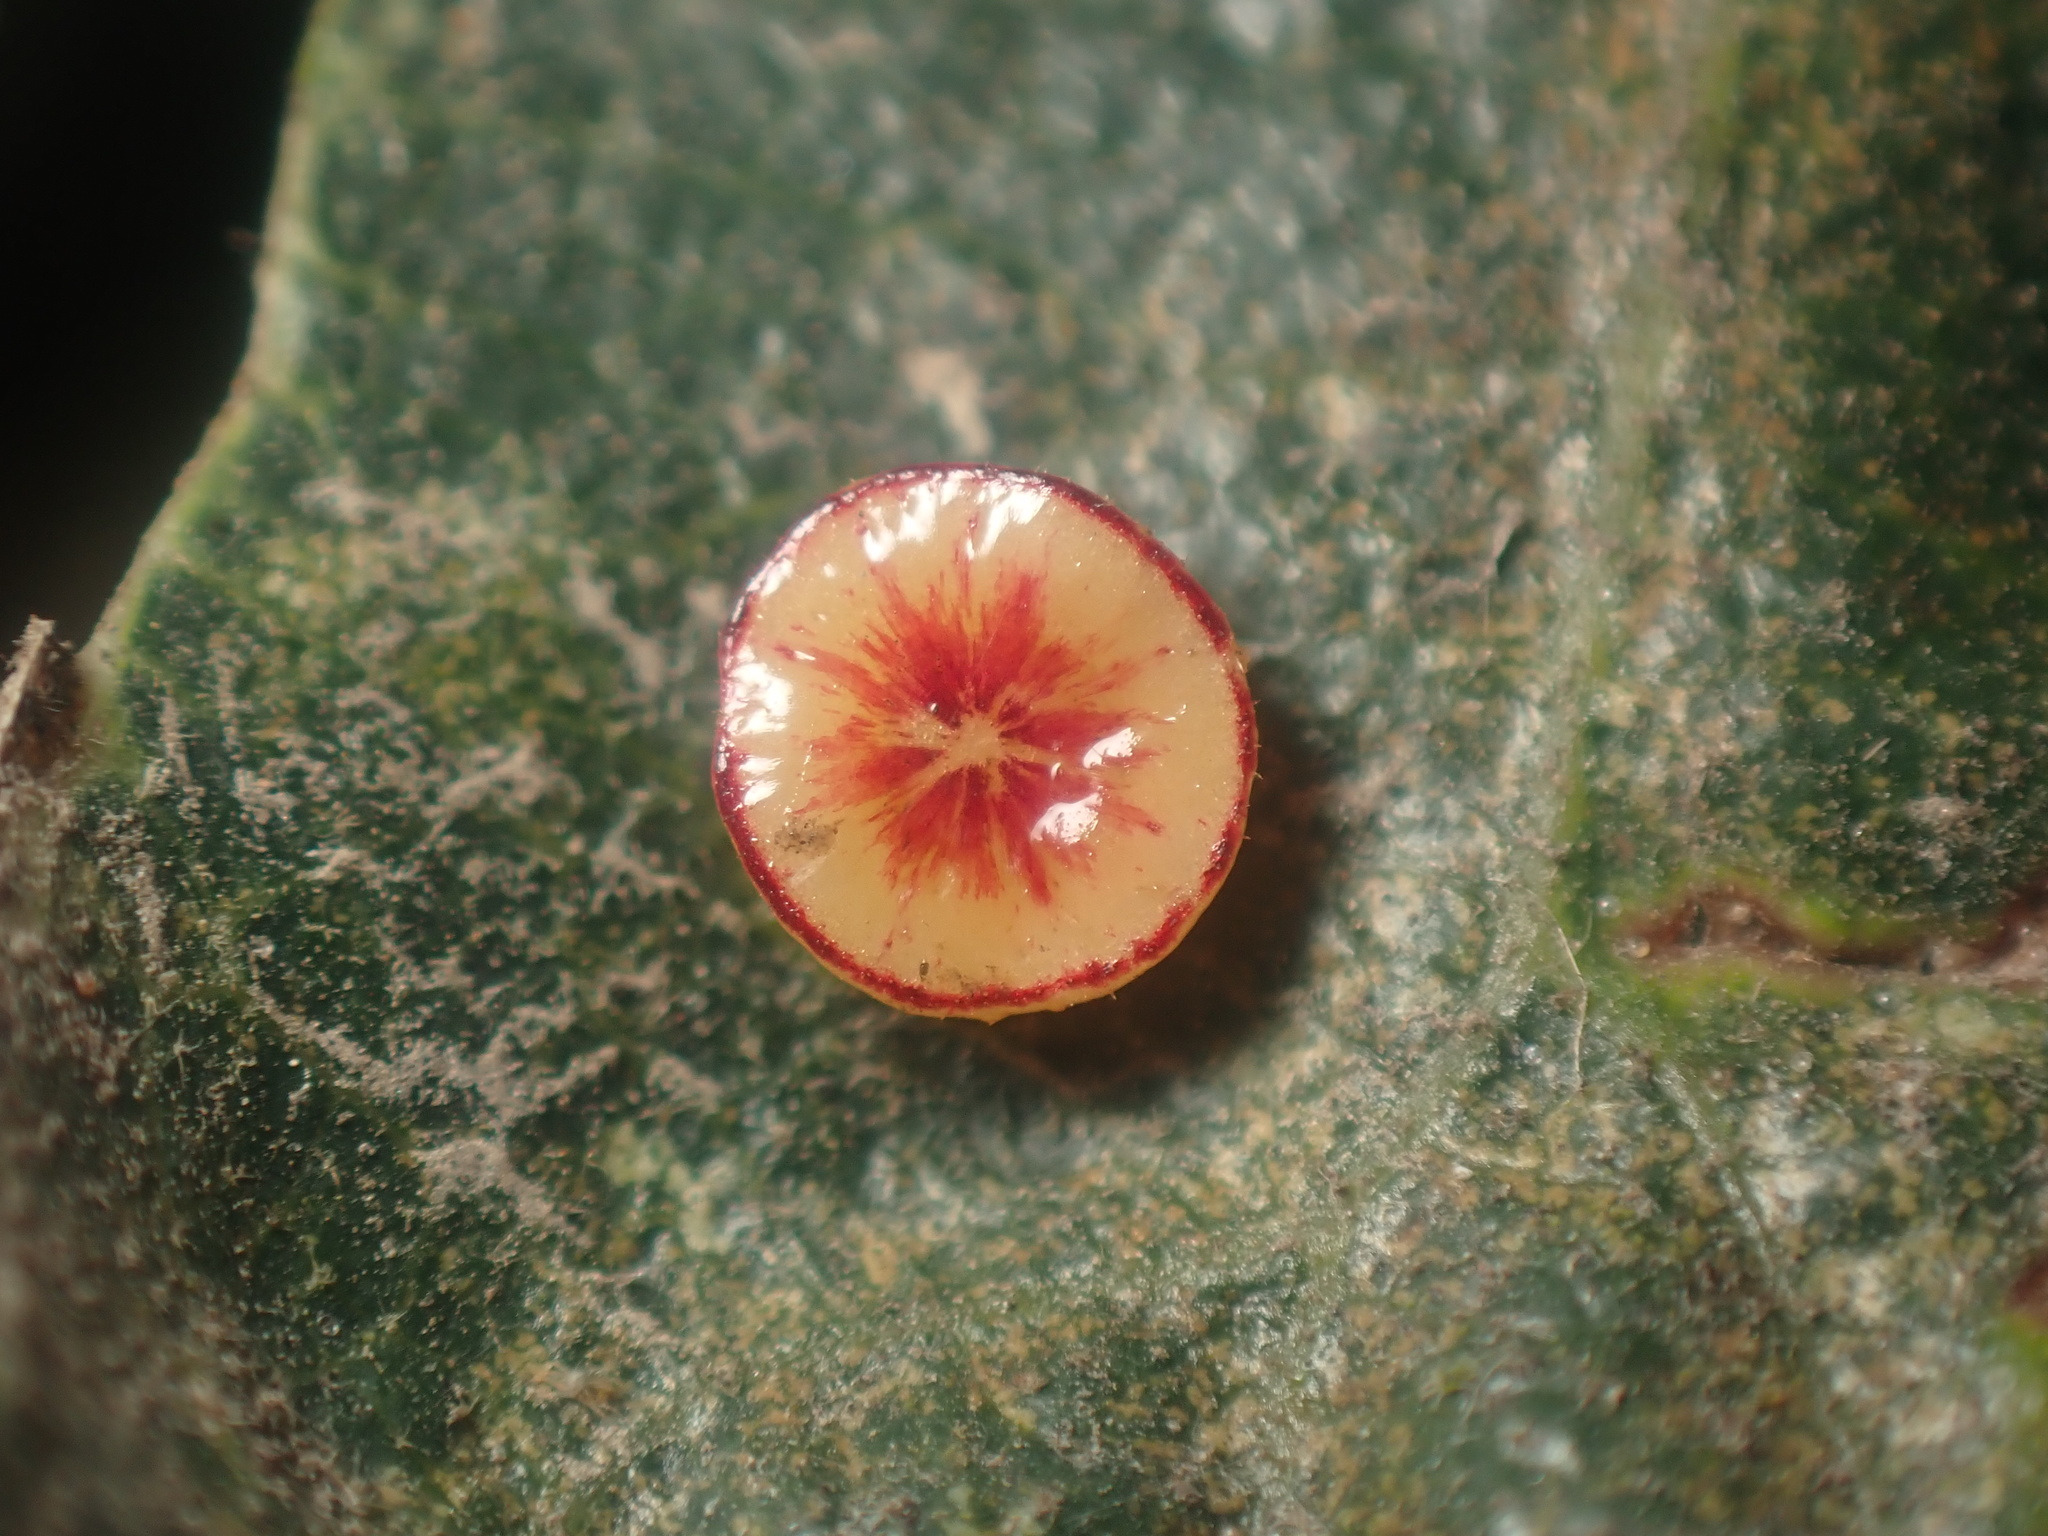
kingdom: Animalia
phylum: Arthropoda
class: Insecta
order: Hymenoptera
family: Cynipidae
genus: Andricus
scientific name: Andricus
